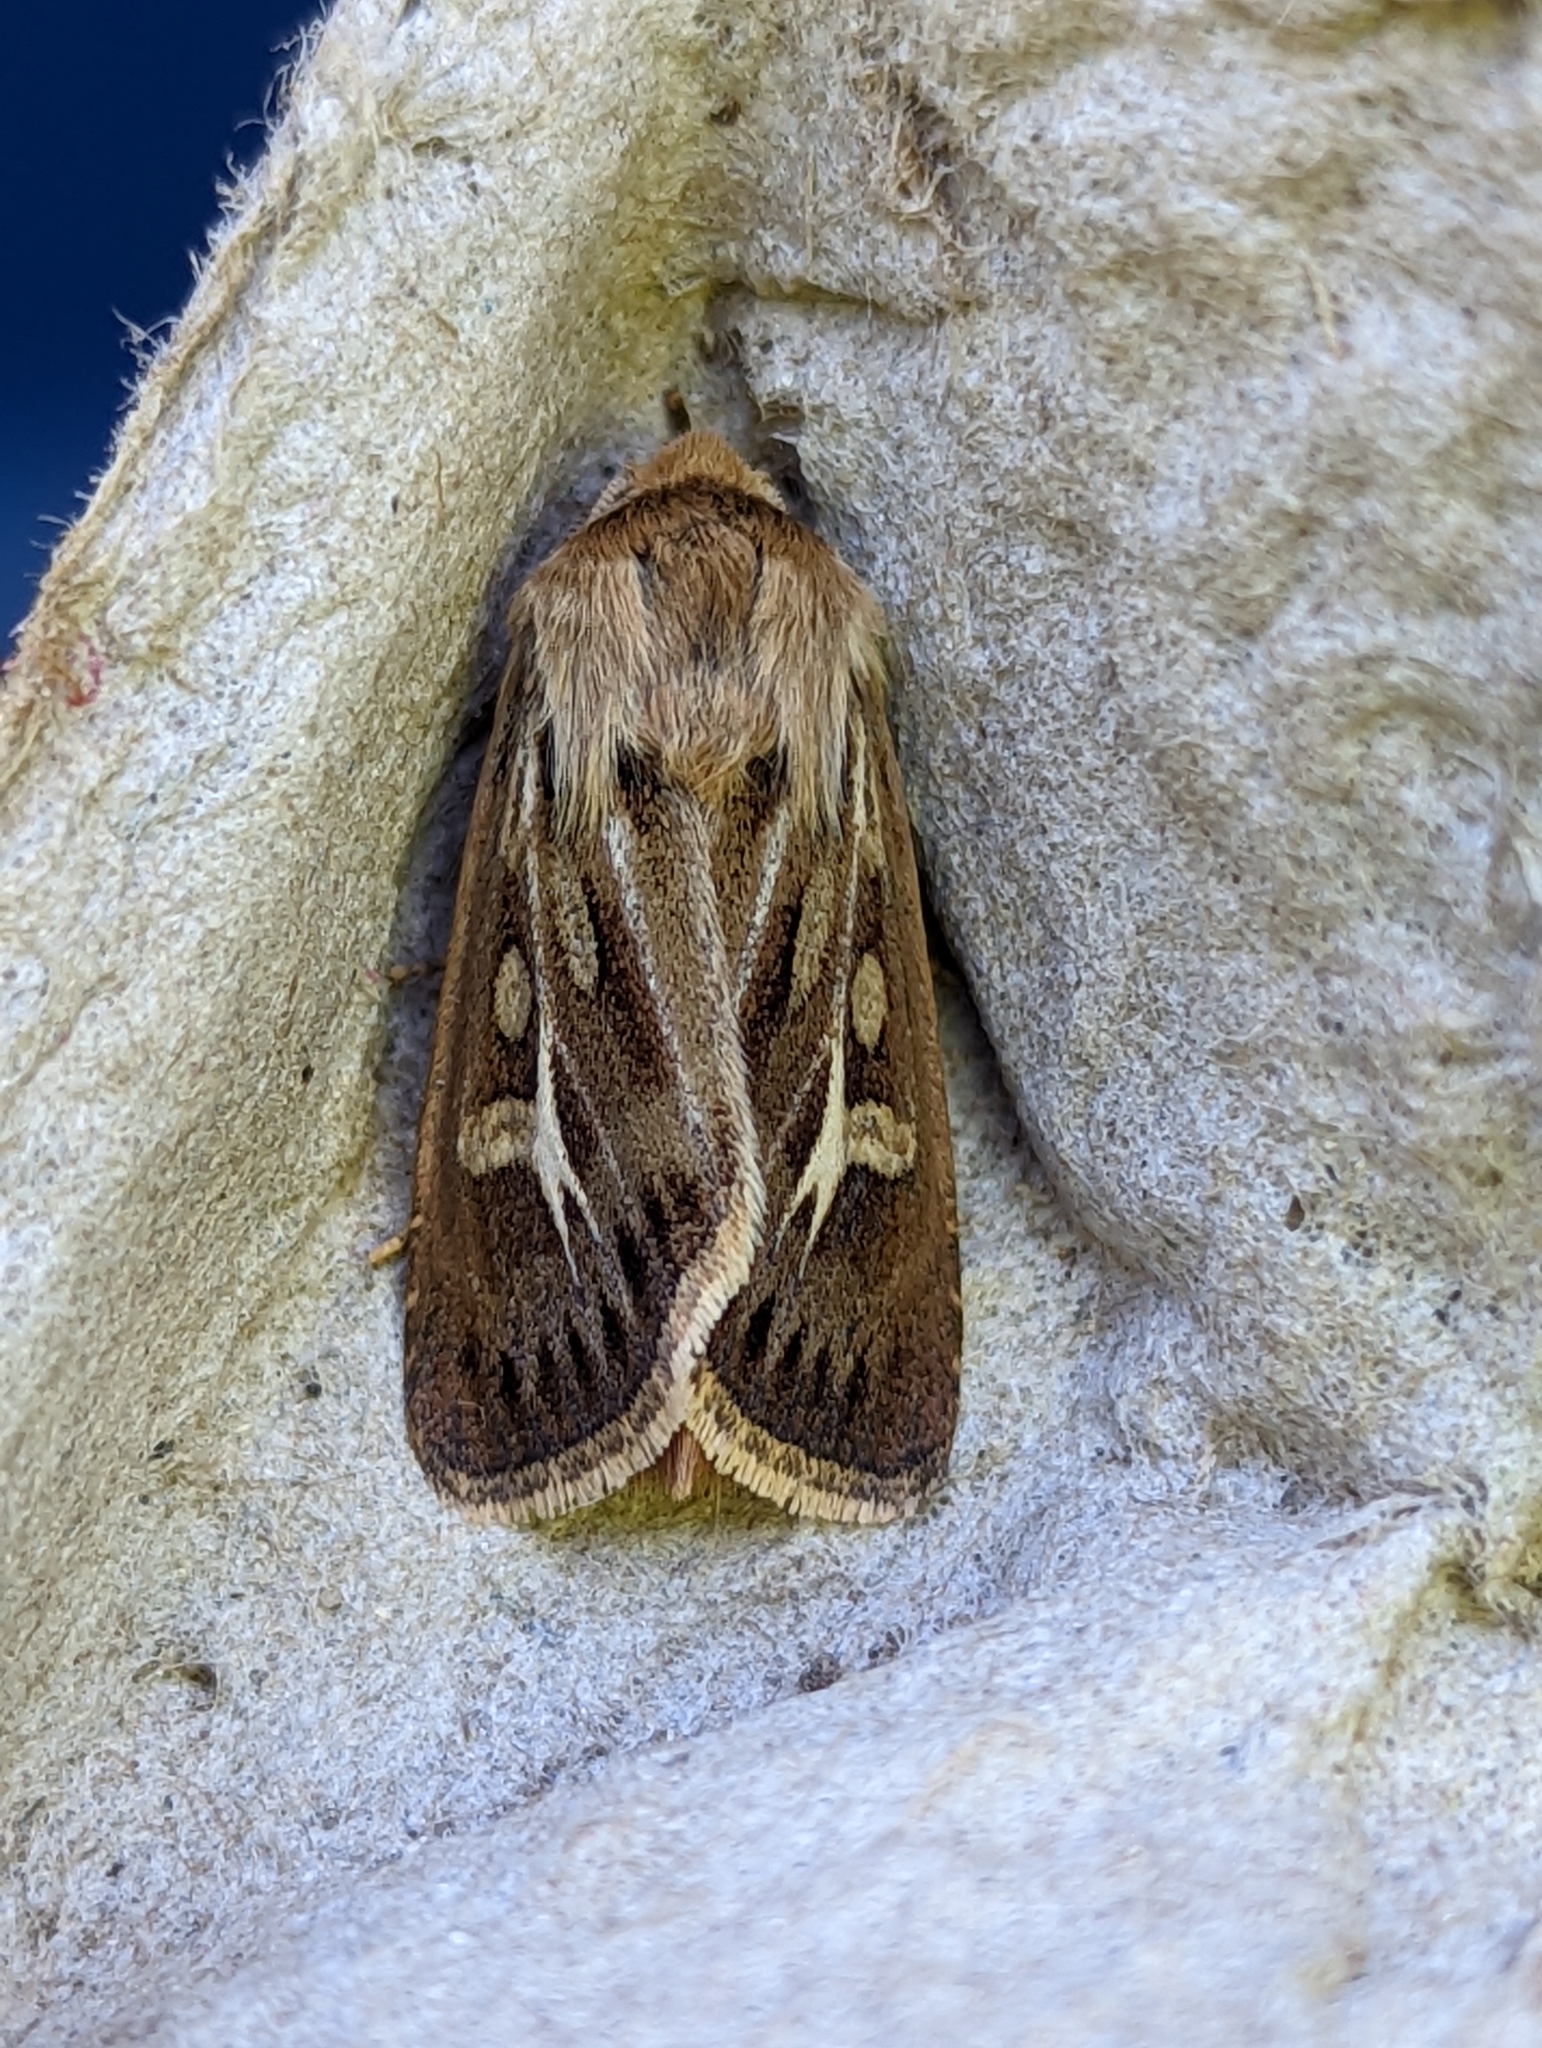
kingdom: Animalia
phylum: Arthropoda
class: Insecta
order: Lepidoptera
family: Noctuidae
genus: Cerapteryx
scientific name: Cerapteryx graminis
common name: Antler moth
